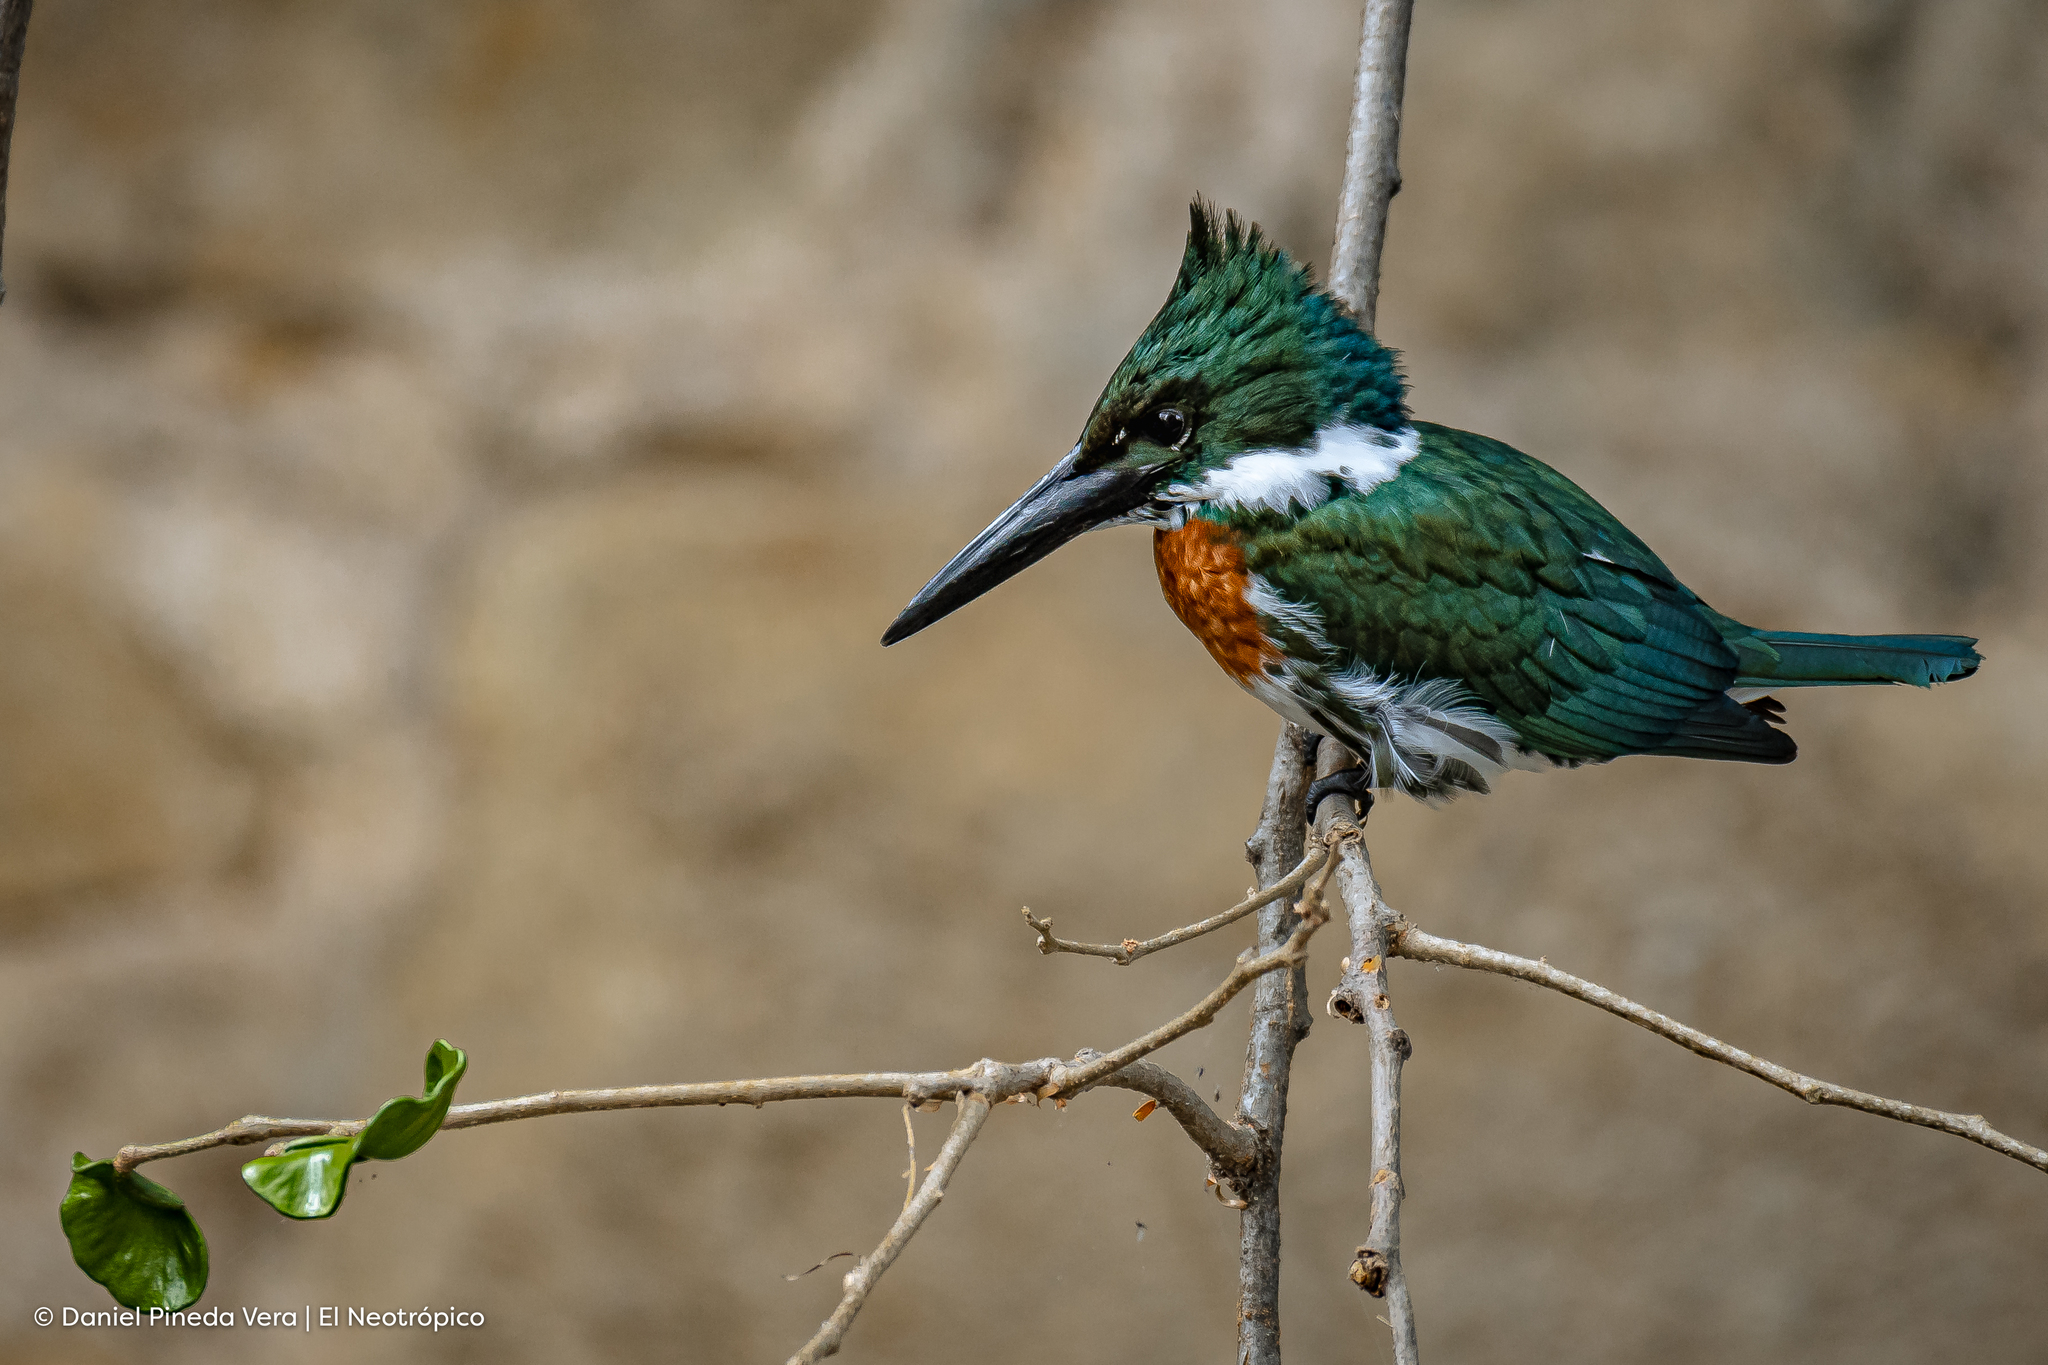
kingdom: Animalia
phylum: Chordata
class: Aves
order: Coraciiformes
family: Alcedinidae
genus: Chloroceryle
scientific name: Chloroceryle amazona
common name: Amazon kingfisher
